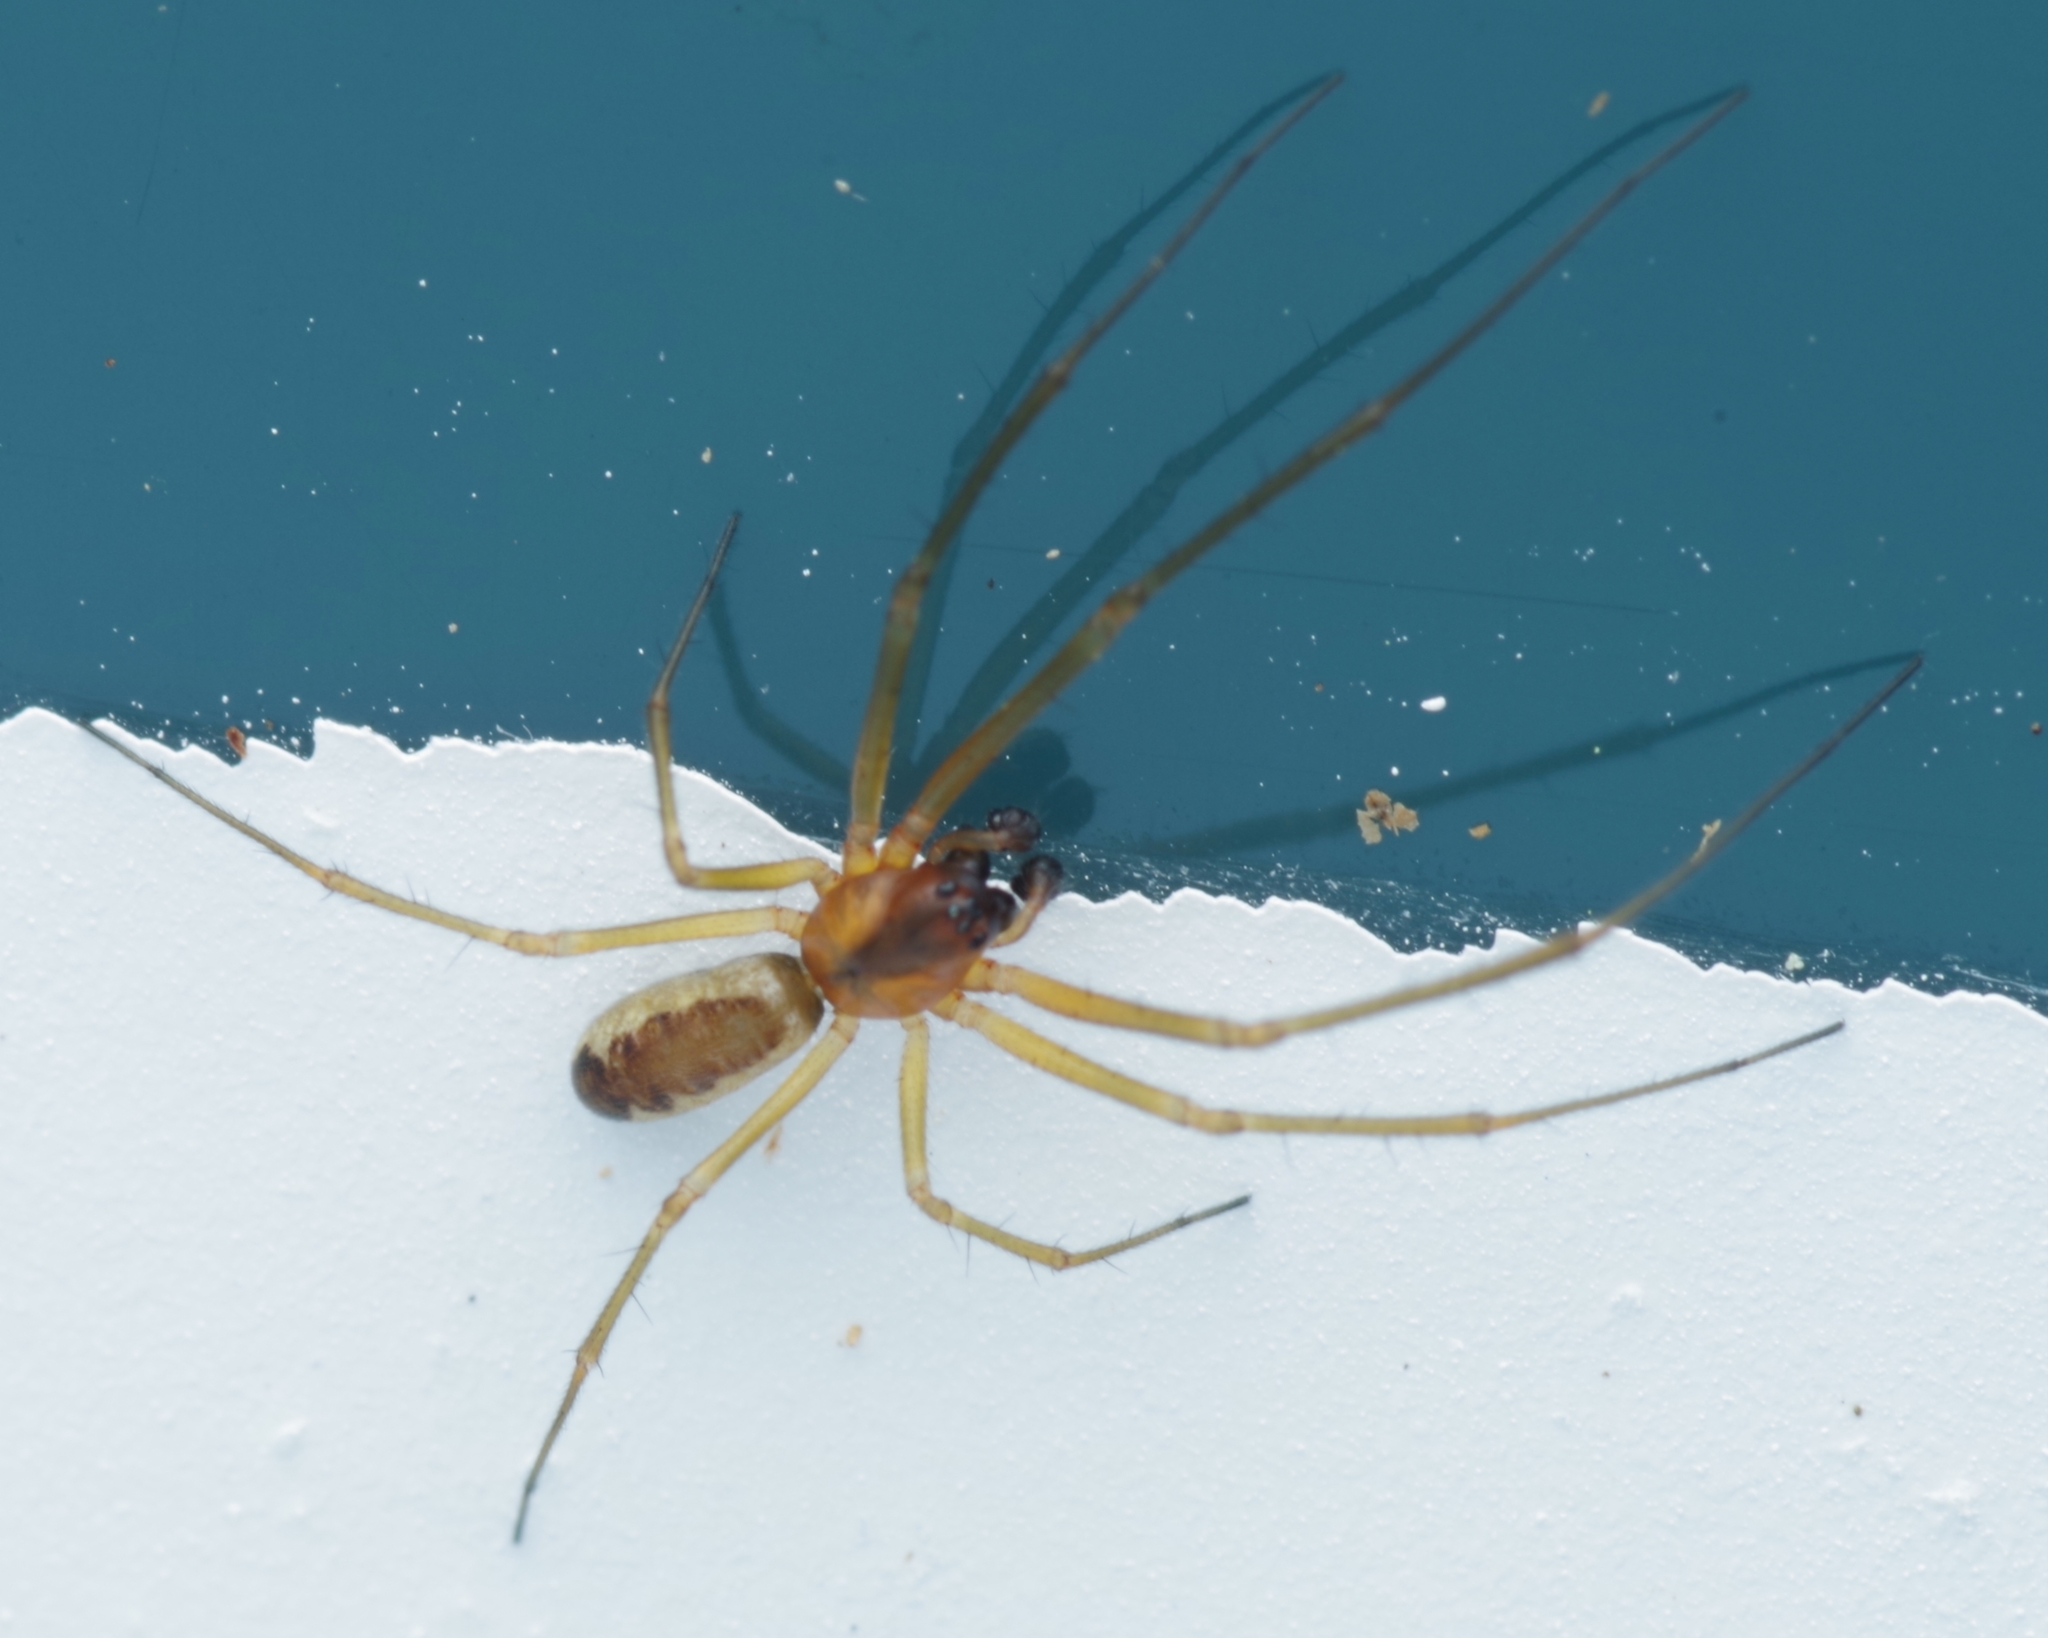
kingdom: Animalia
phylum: Arthropoda
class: Arachnida
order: Araneae
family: Linyphiidae
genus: Neriene
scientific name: Neriene peltata
